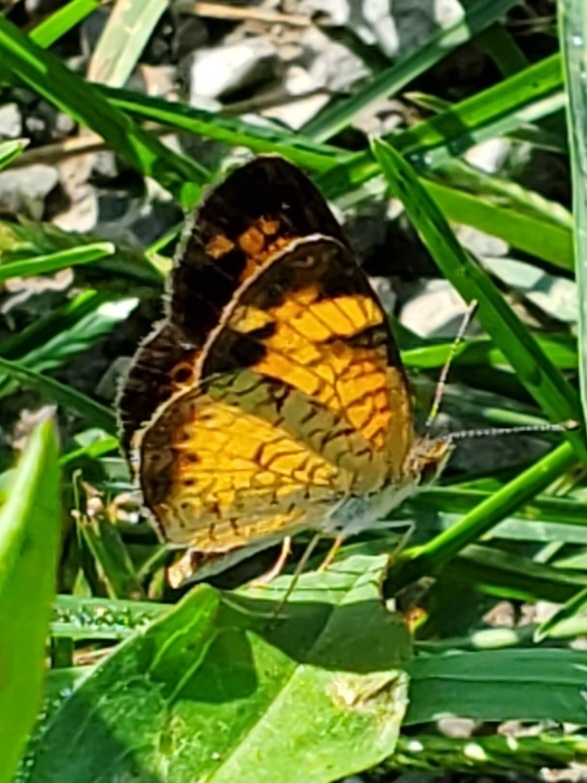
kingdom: Animalia
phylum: Arthropoda
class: Insecta
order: Lepidoptera
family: Nymphalidae
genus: Phyciodes
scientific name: Phyciodes tharos
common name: Pearl crescent
